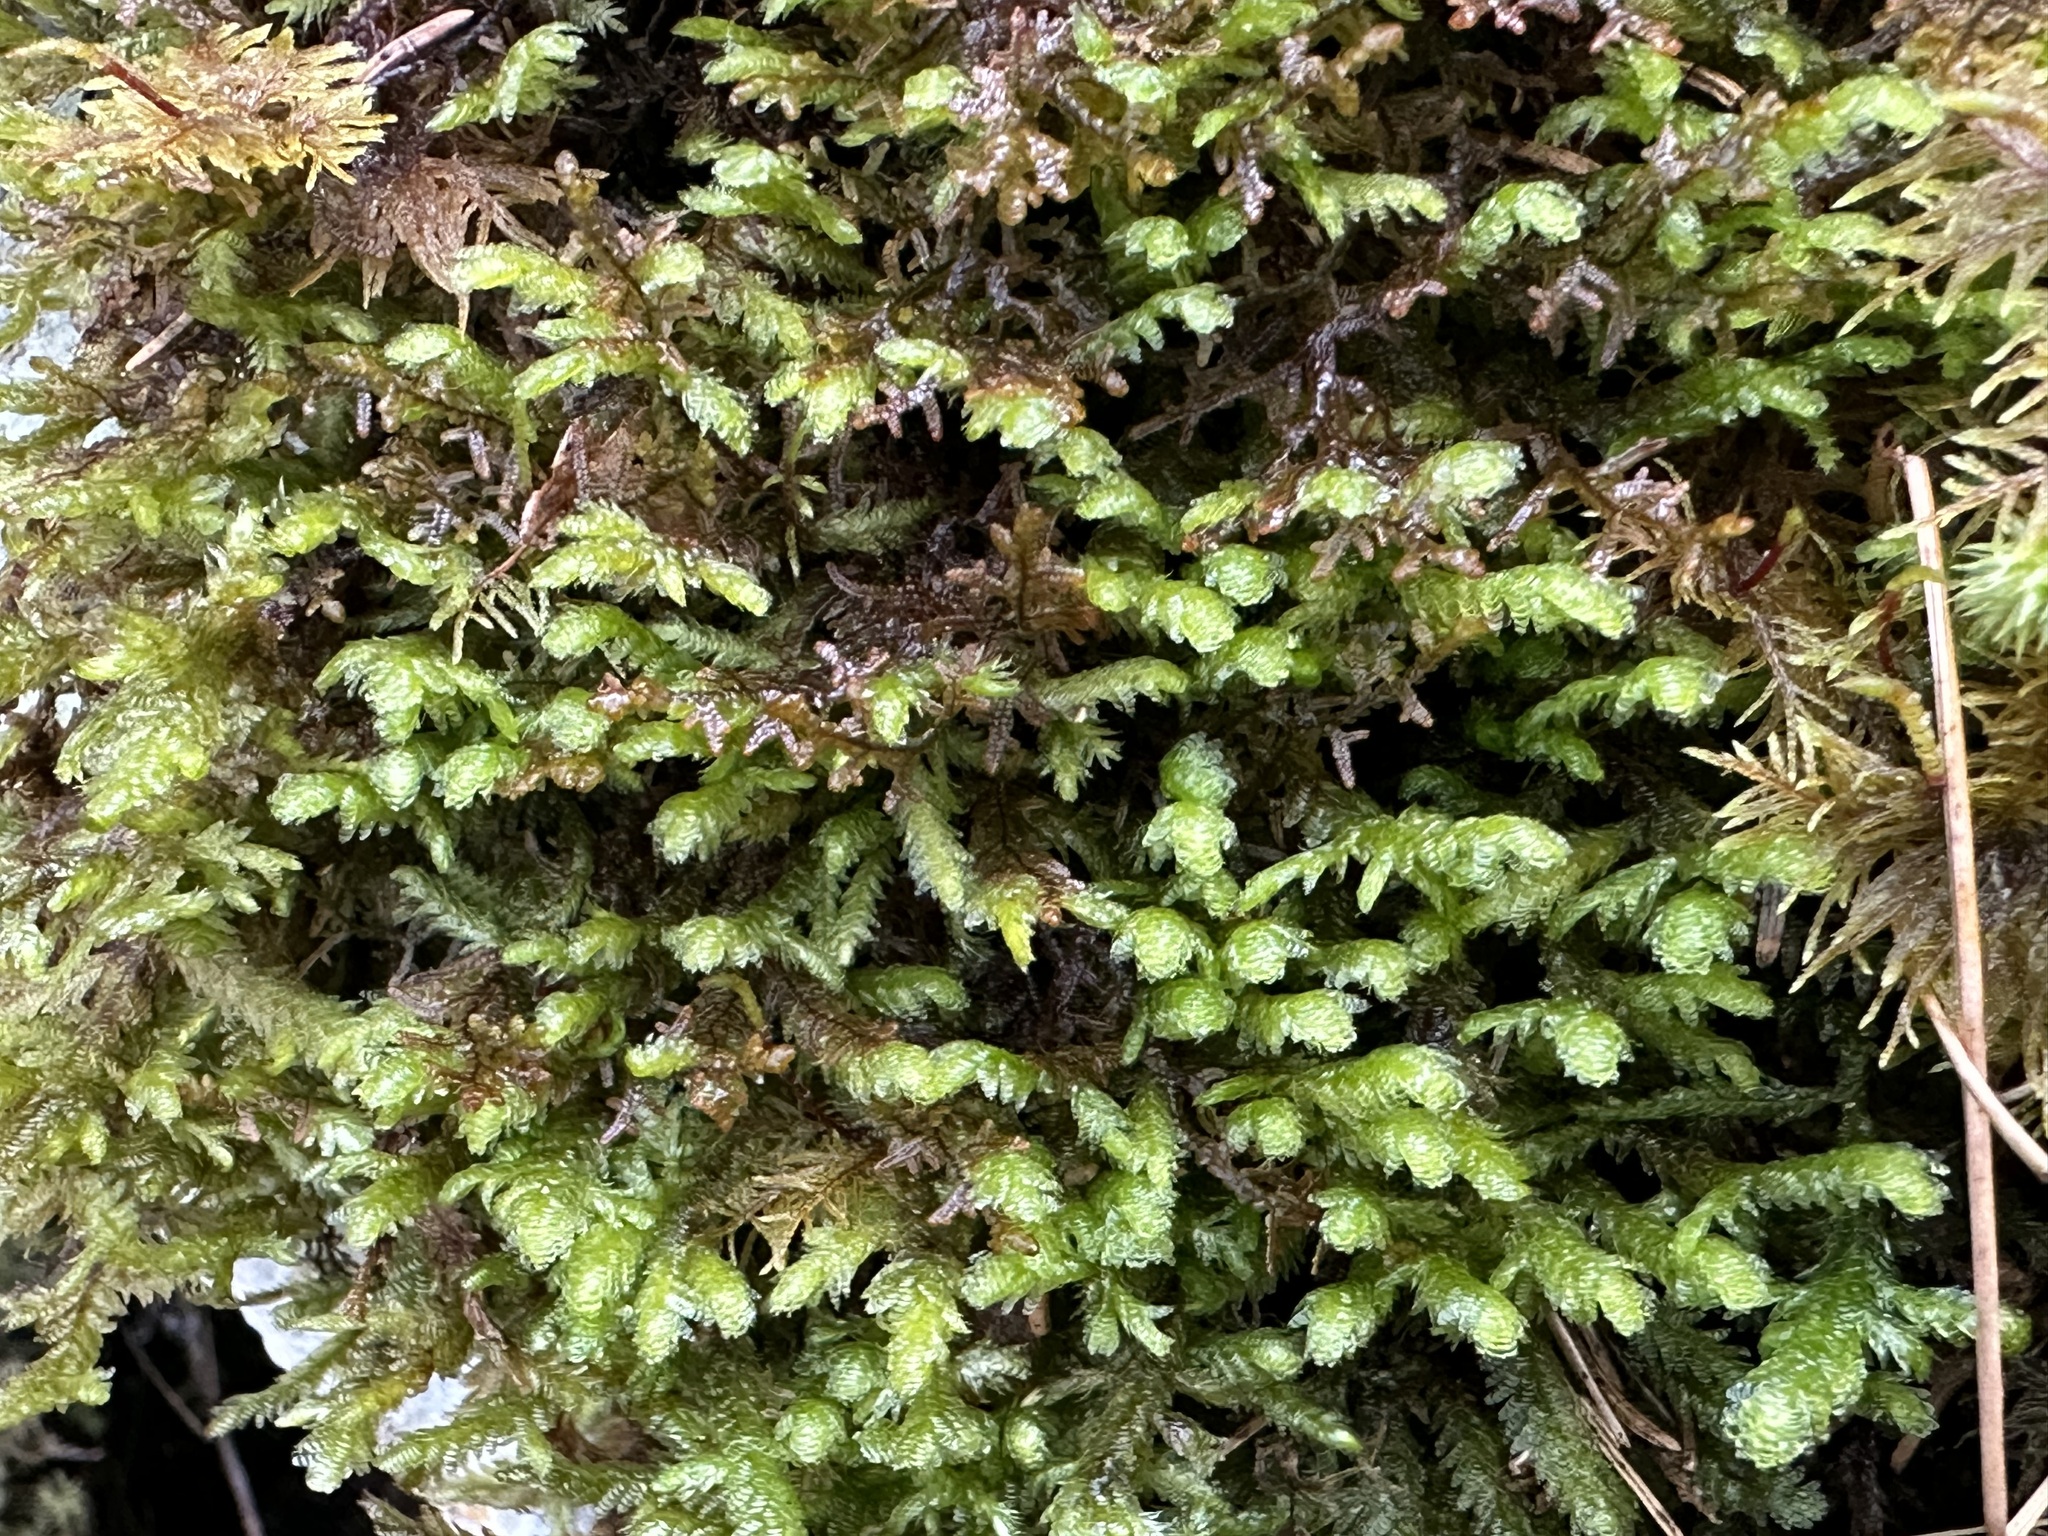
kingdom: Plantae
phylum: Bryophyta
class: Bryopsida
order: Hypnales
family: Neckeraceae
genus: Exsertotheca
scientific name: Exsertotheca crispa
